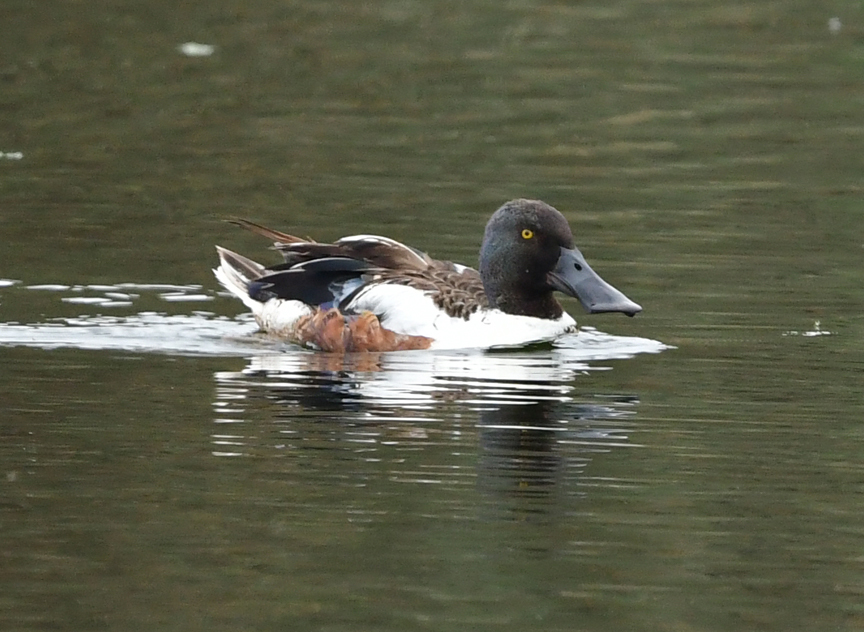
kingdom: Animalia
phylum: Chordata
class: Aves
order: Anseriformes
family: Anatidae
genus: Spatula
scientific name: Spatula clypeata
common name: Northern shoveler
